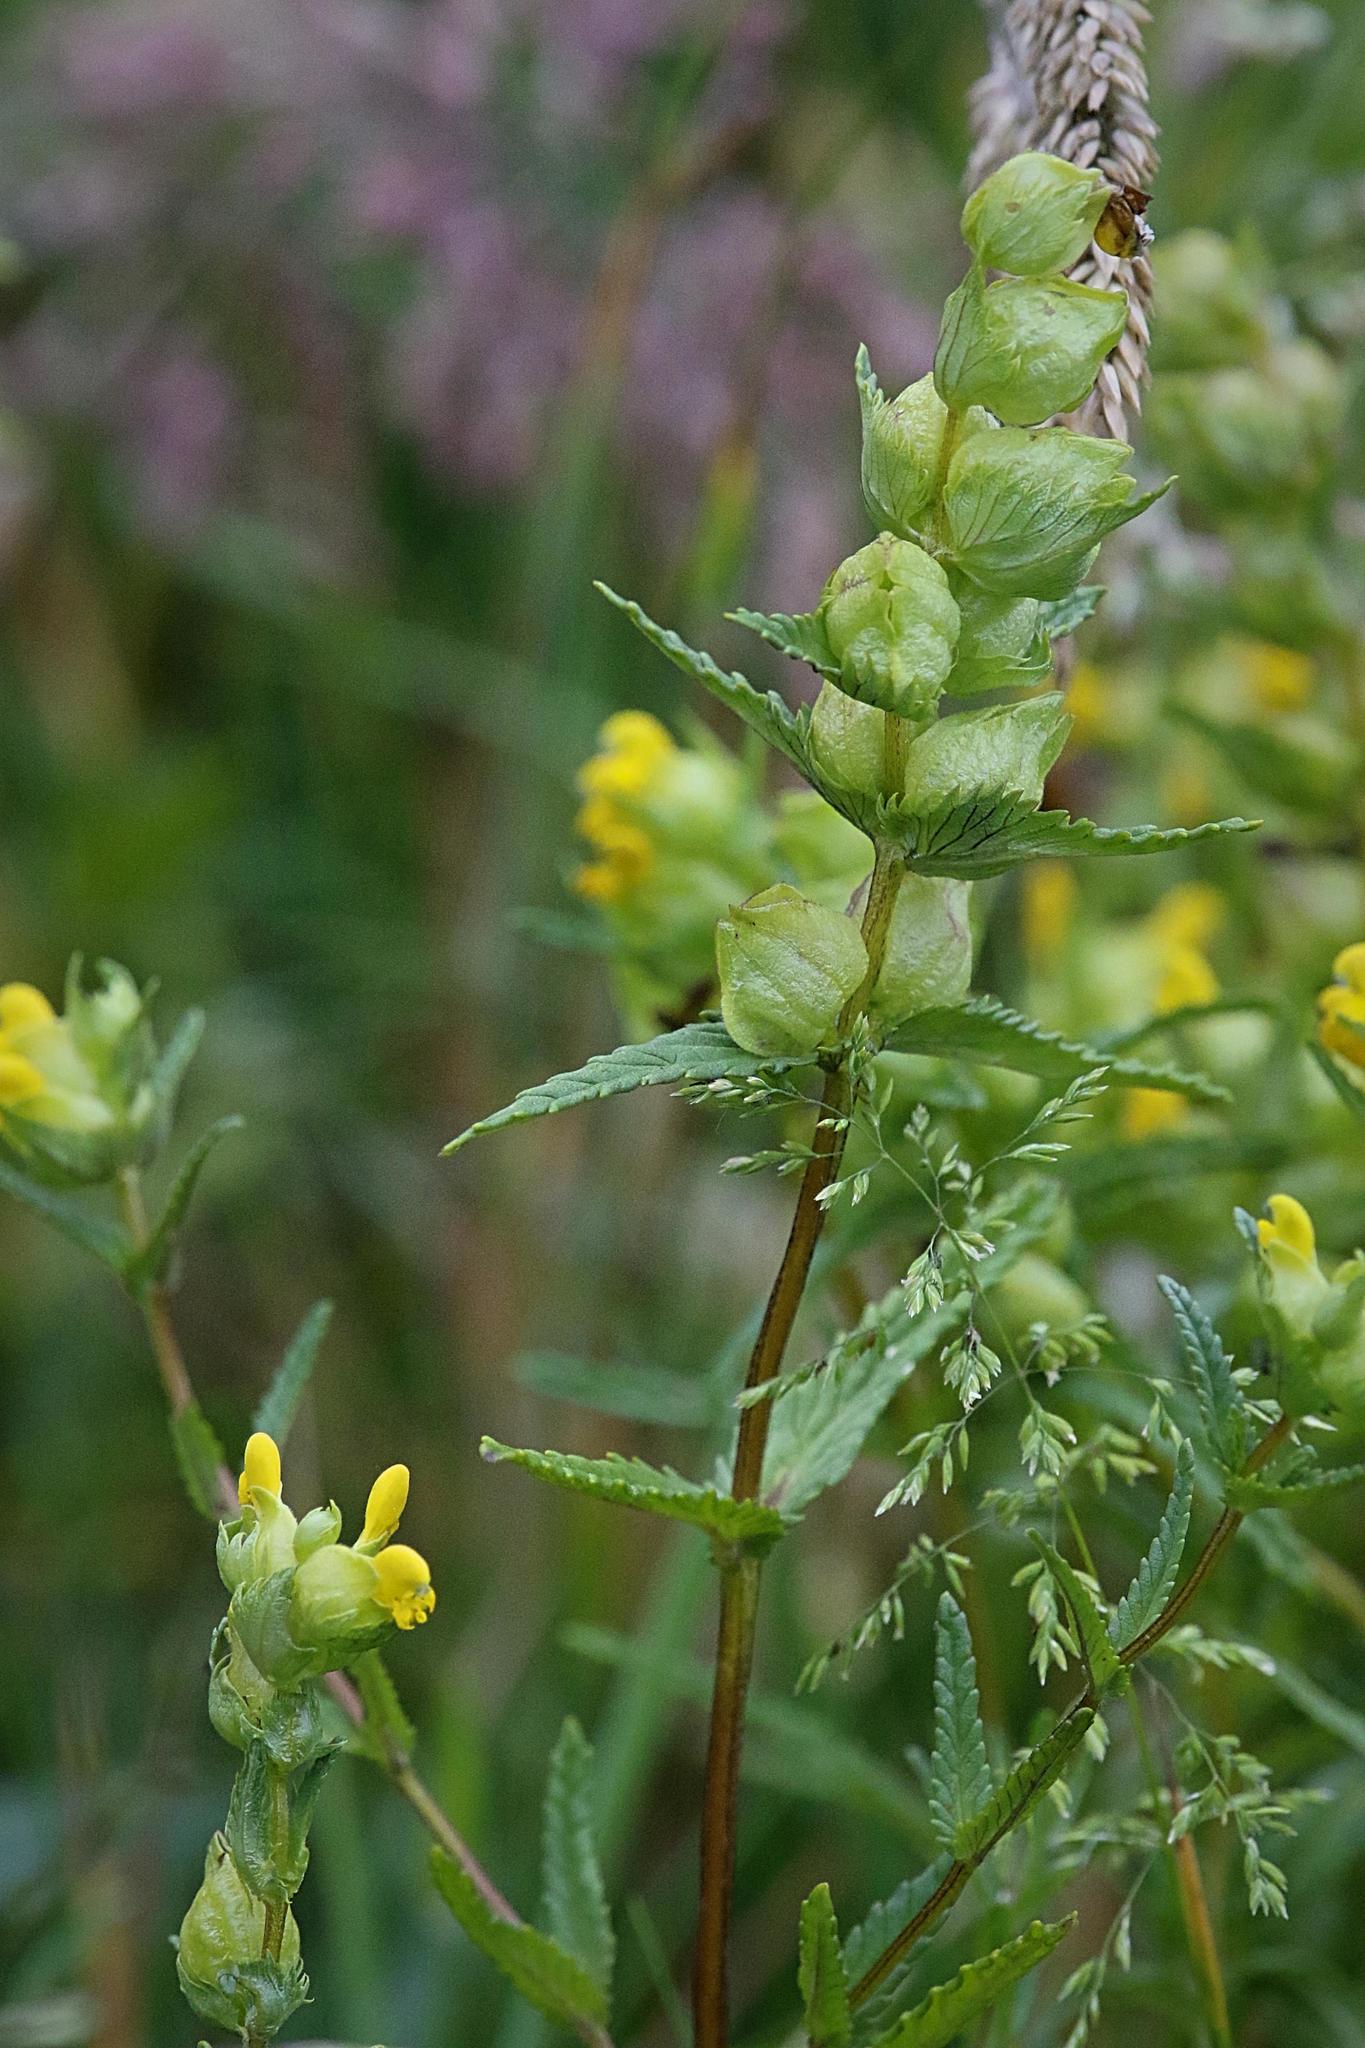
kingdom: Plantae
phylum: Tracheophyta
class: Magnoliopsida
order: Lamiales
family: Orobanchaceae
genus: Rhinanthus
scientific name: Rhinanthus minor
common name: Yellow-rattle
